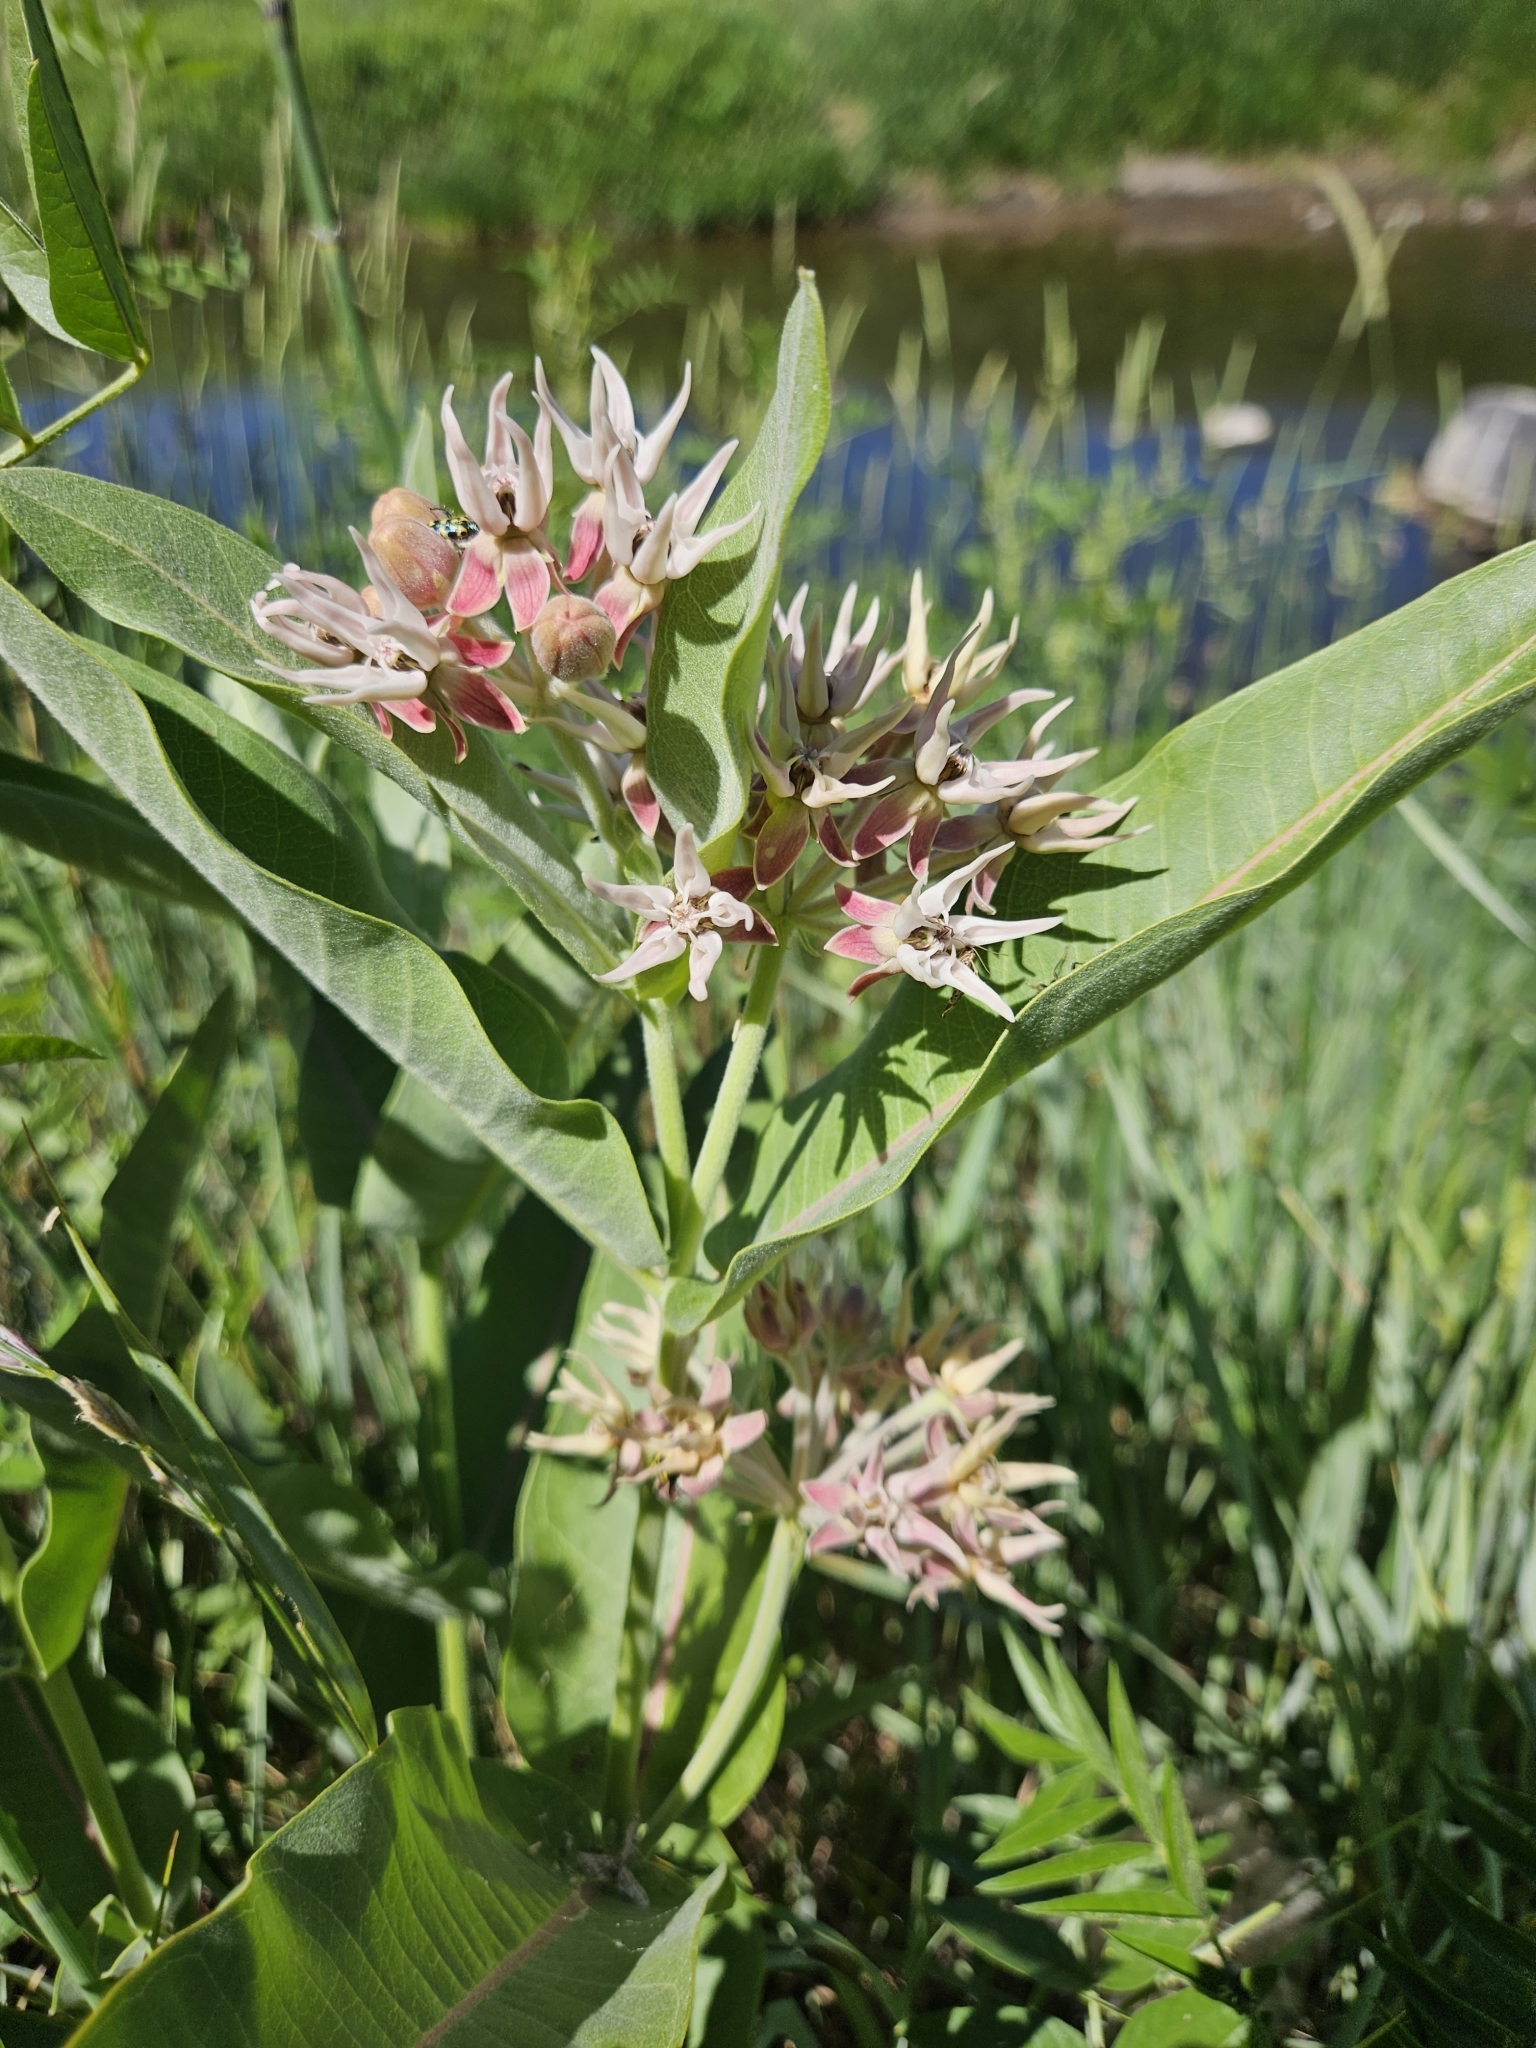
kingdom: Plantae
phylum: Tracheophyta
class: Magnoliopsida
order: Gentianales
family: Apocynaceae
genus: Asclepias
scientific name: Asclepias speciosa
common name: Showy milkweed
